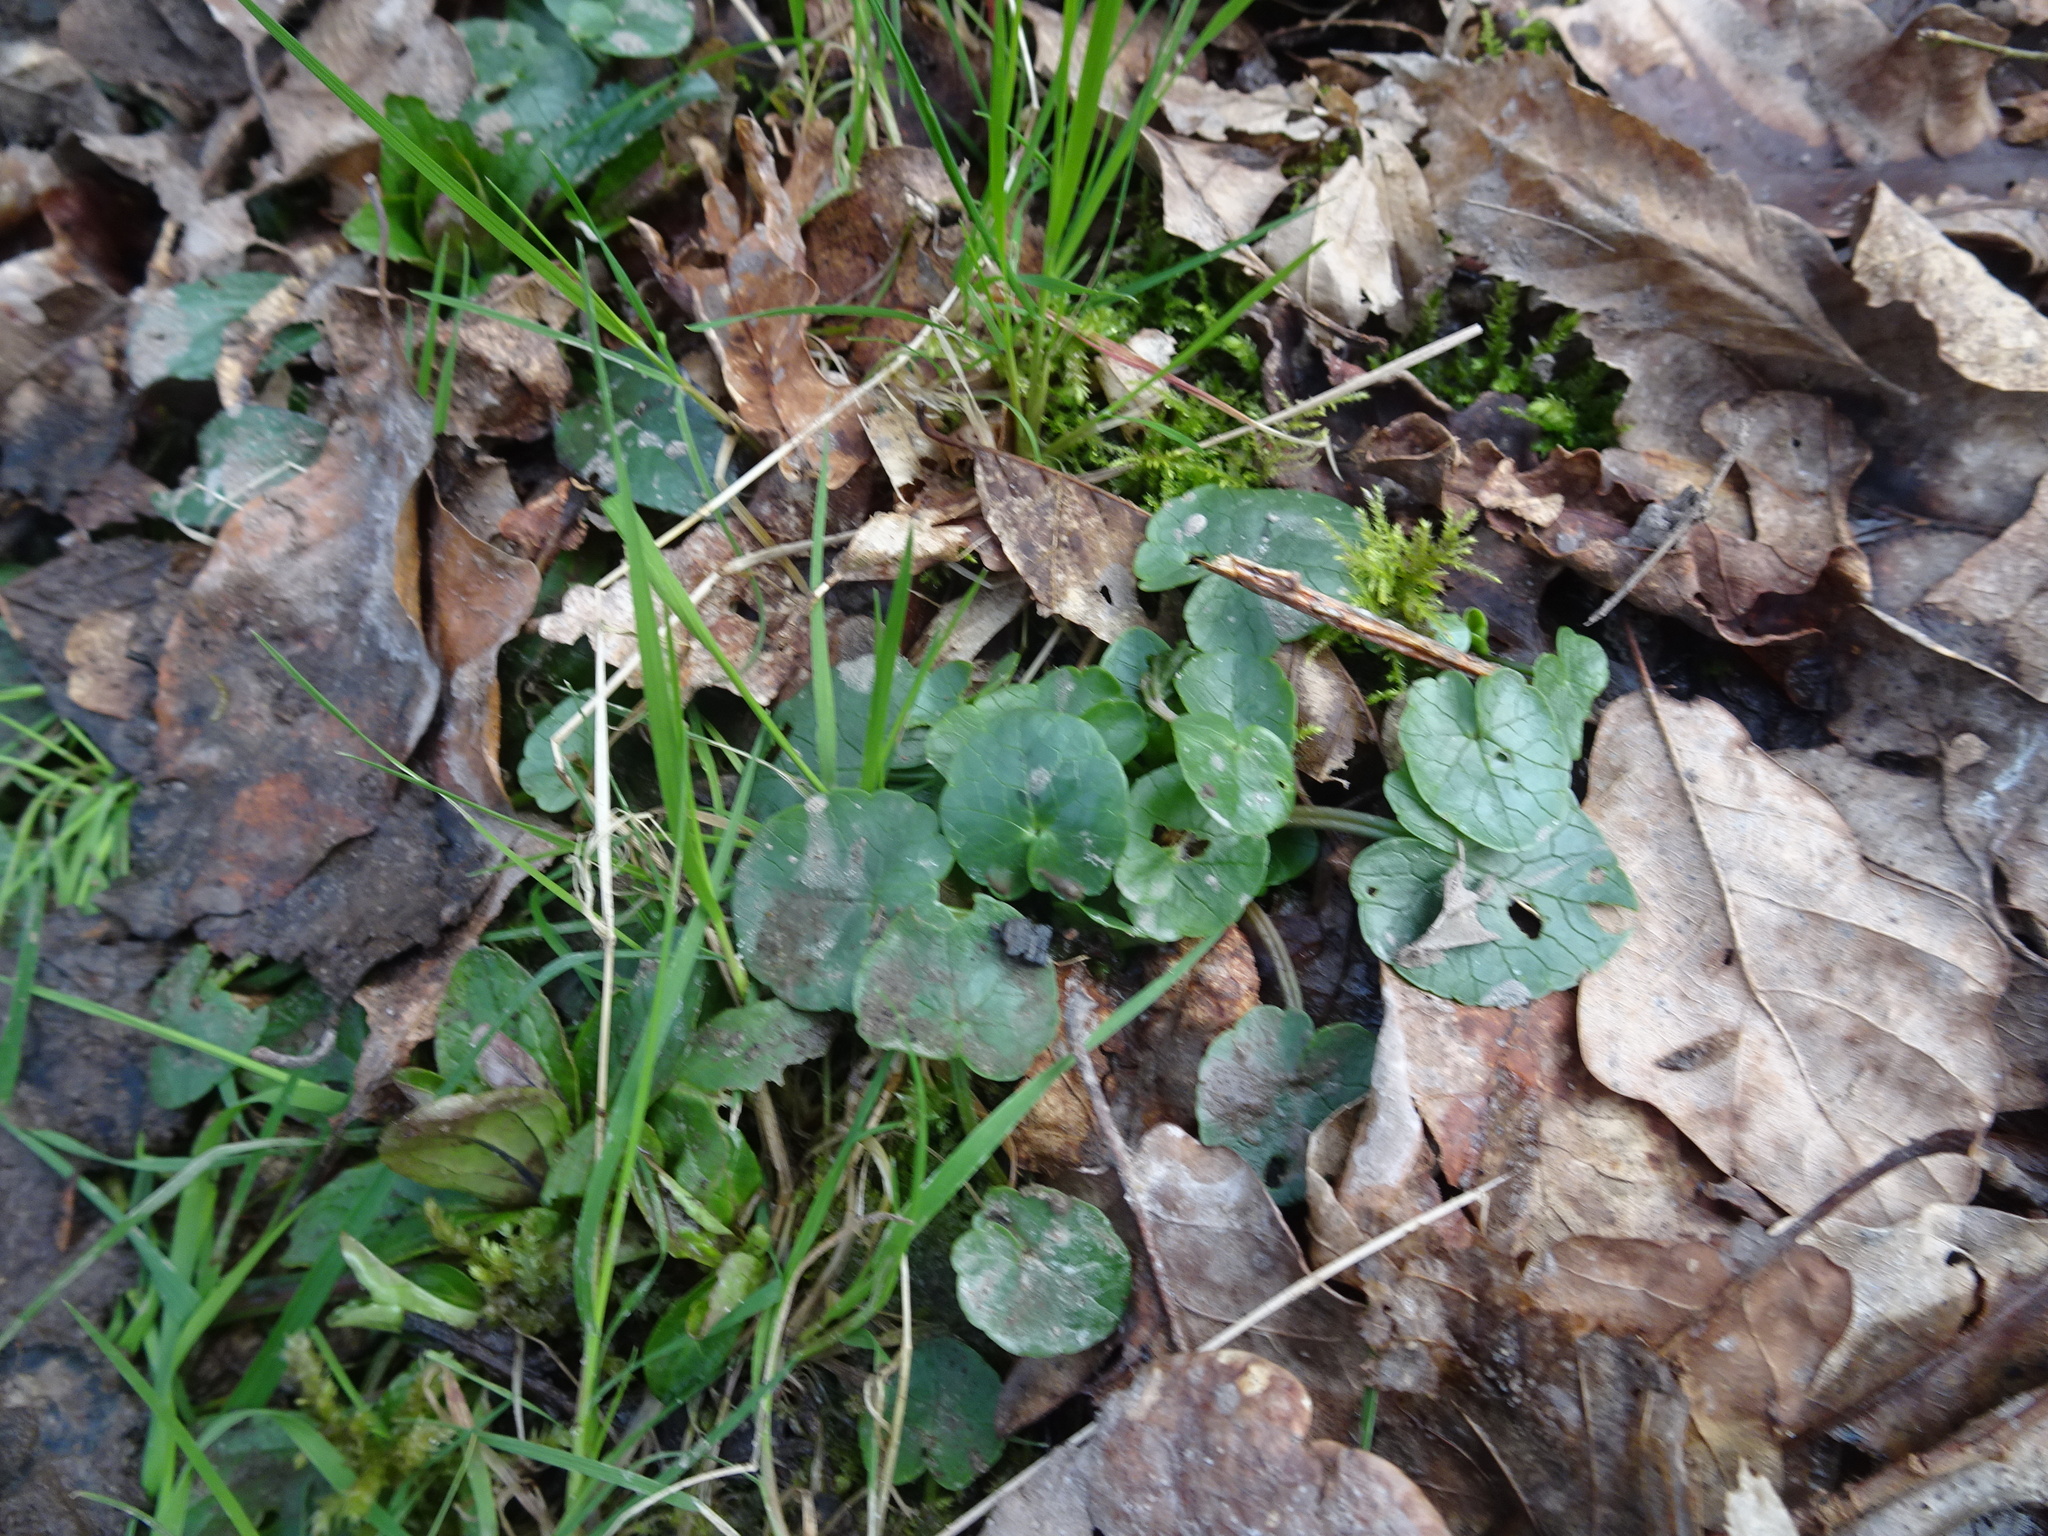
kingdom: Plantae
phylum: Tracheophyta
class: Magnoliopsida
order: Ranunculales
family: Ranunculaceae
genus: Ficaria
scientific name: Ficaria verna
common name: Lesser celandine
